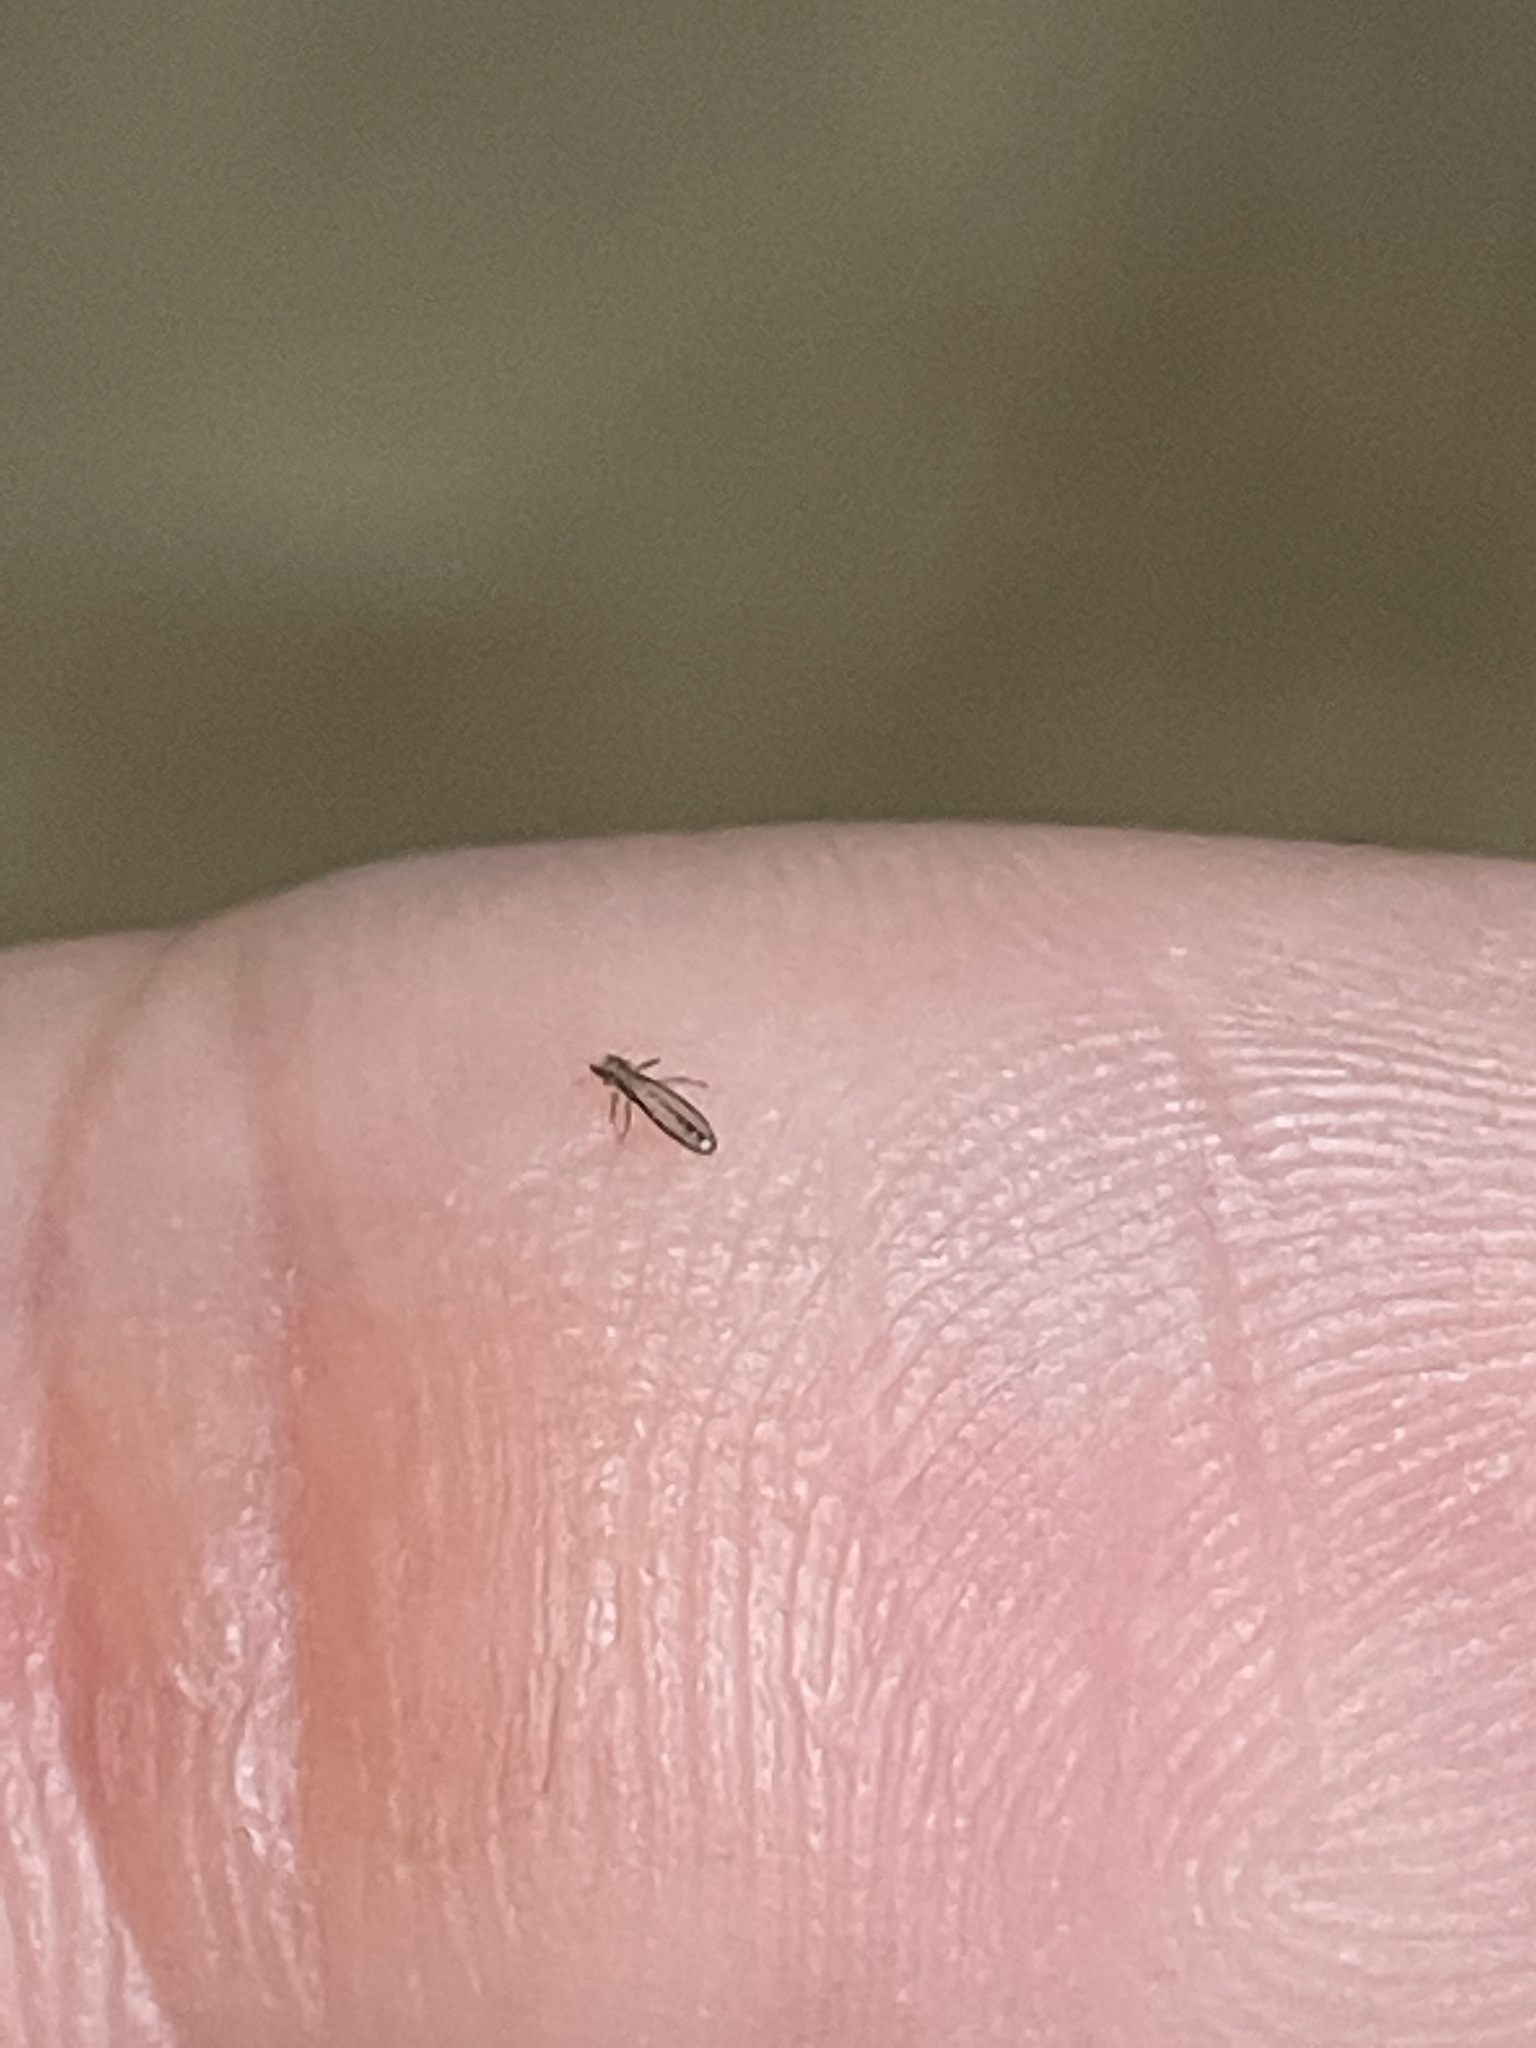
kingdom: Animalia
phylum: Arthropoda
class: Insecta
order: Psocodea
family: Philopteridae
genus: Lipeurus
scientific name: Lipeurus caponis
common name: Louse
